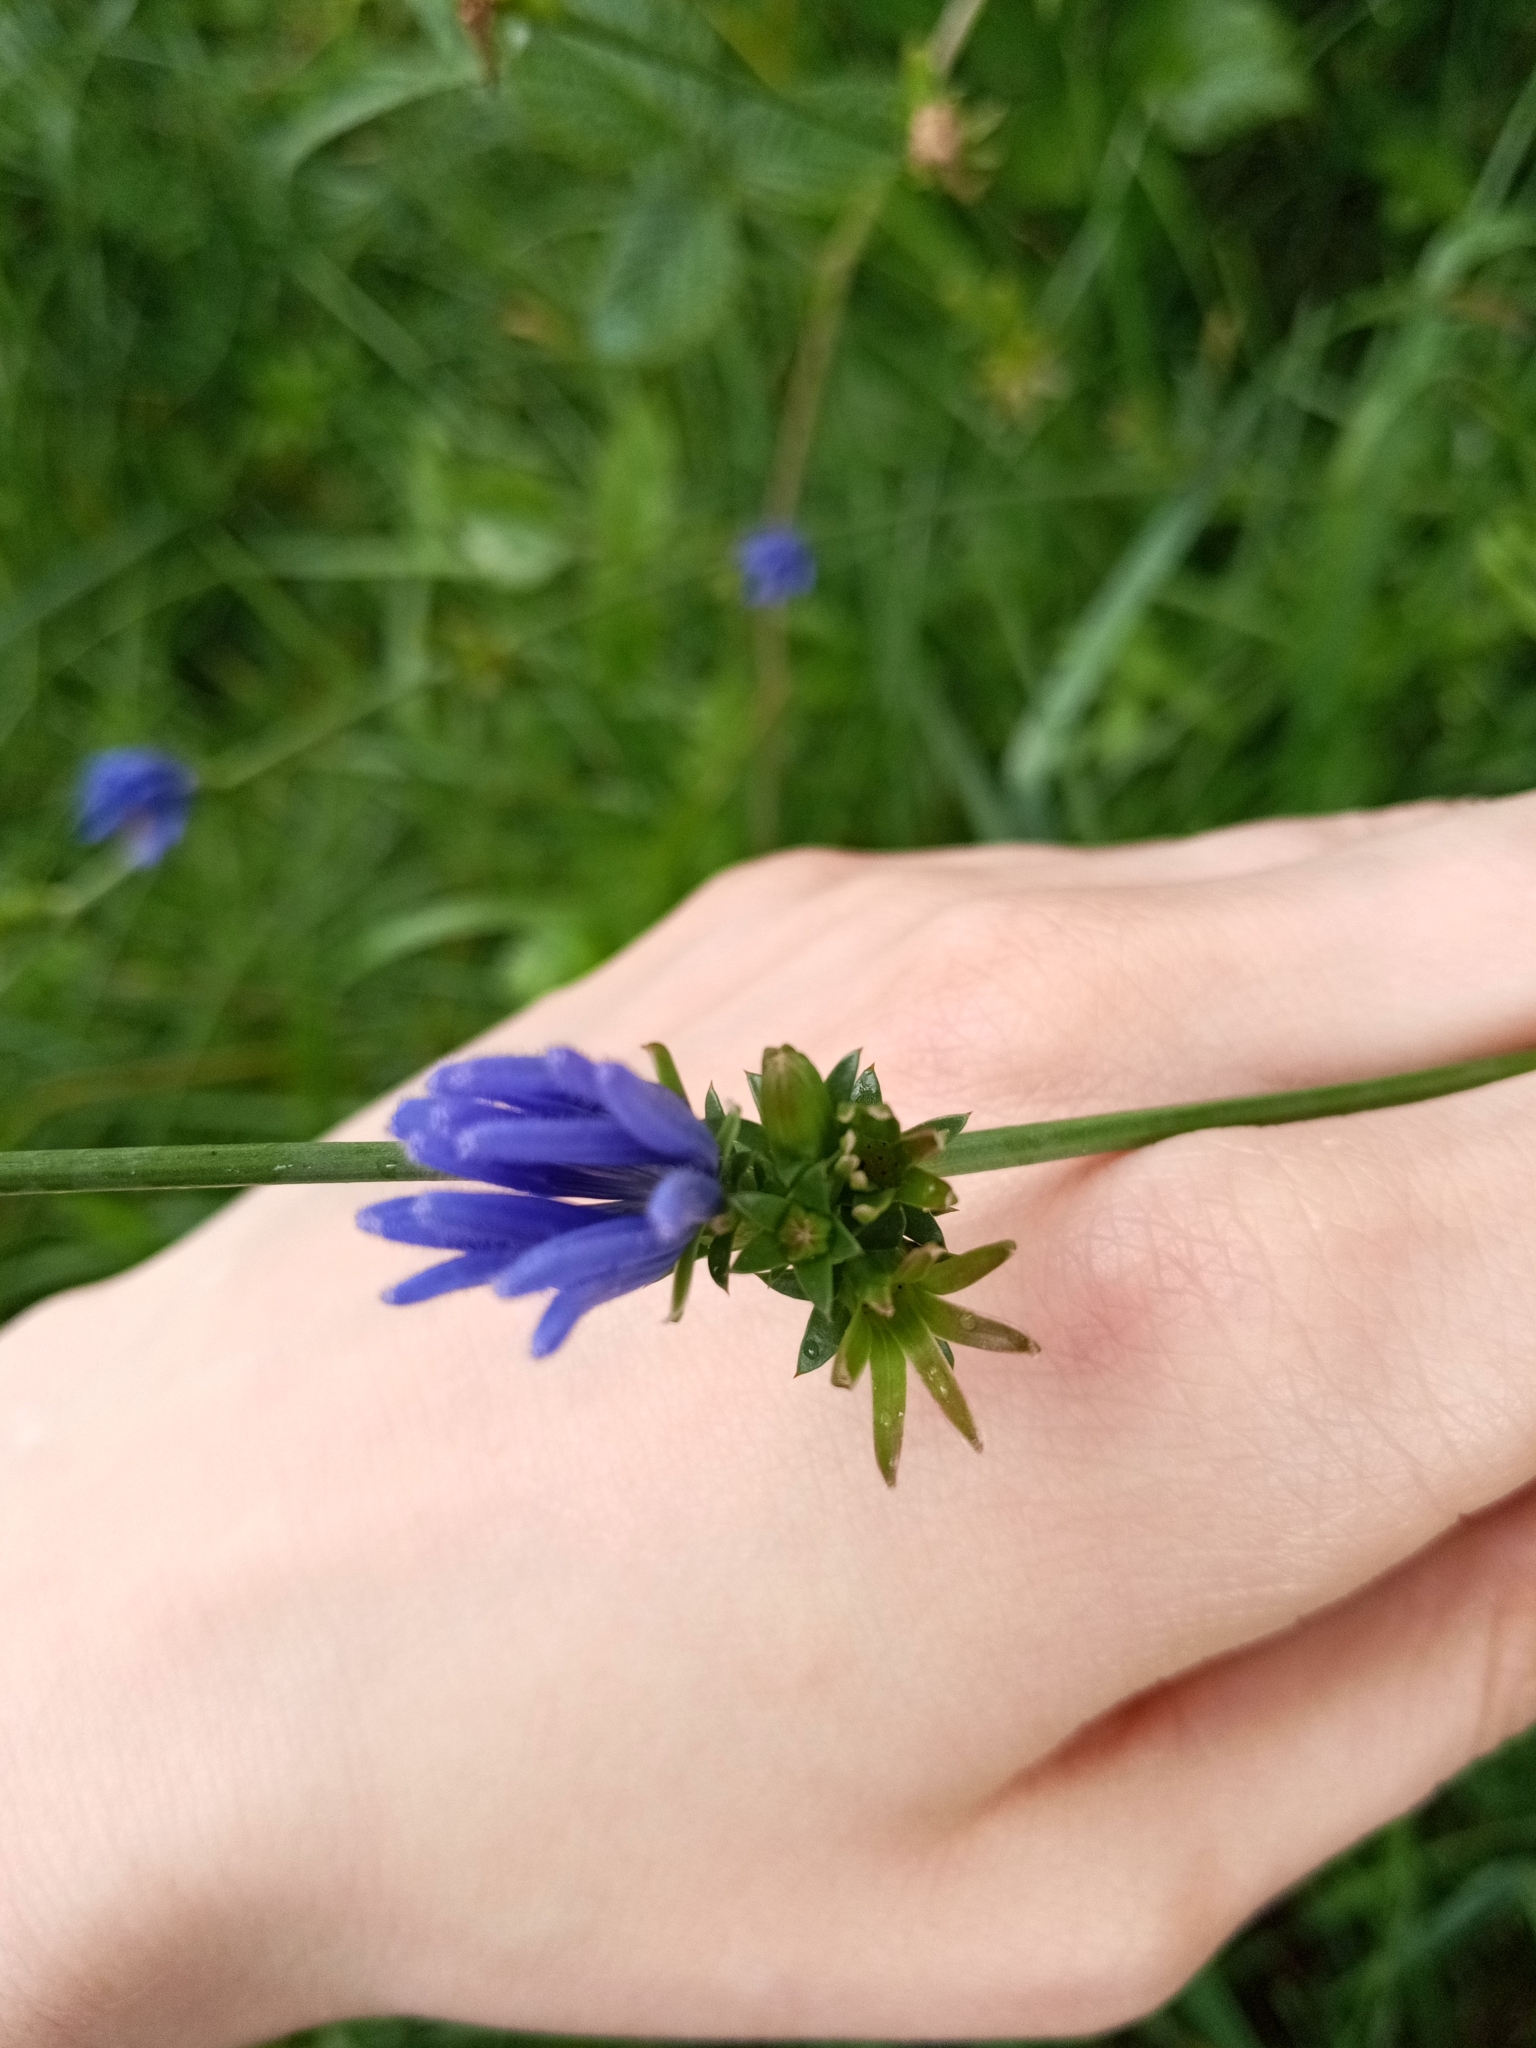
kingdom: Plantae
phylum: Tracheophyta
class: Magnoliopsida
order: Asterales
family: Asteraceae
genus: Cichorium
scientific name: Cichorium intybus
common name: Chicory
